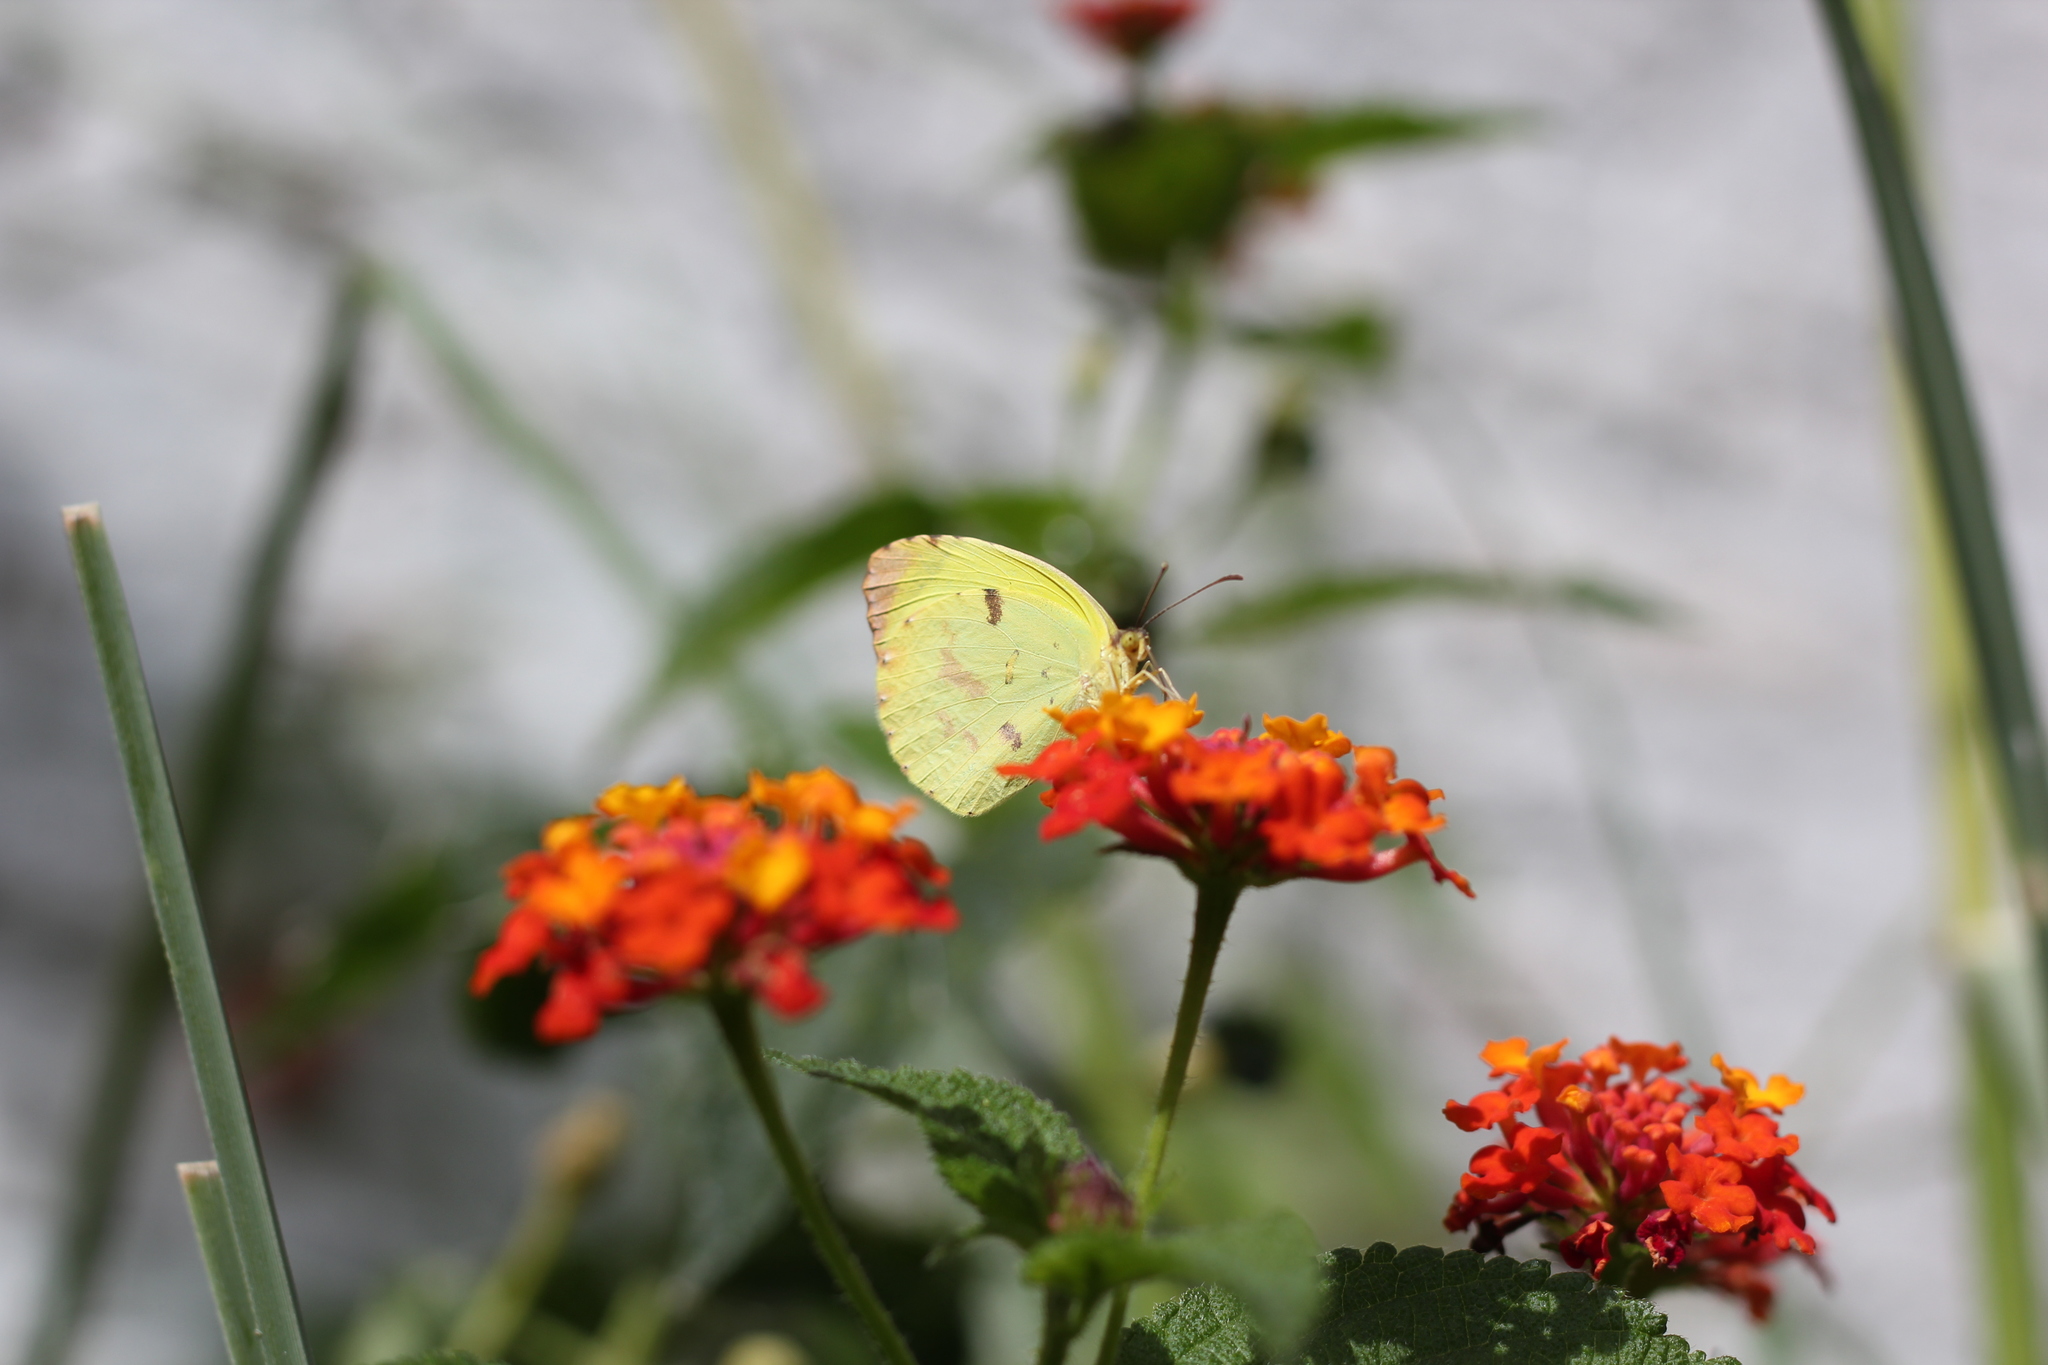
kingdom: Animalia
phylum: Arthropoda
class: Insecta
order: Lepidoptera
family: Pieridae
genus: Teriocolias
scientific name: Teriocolias
